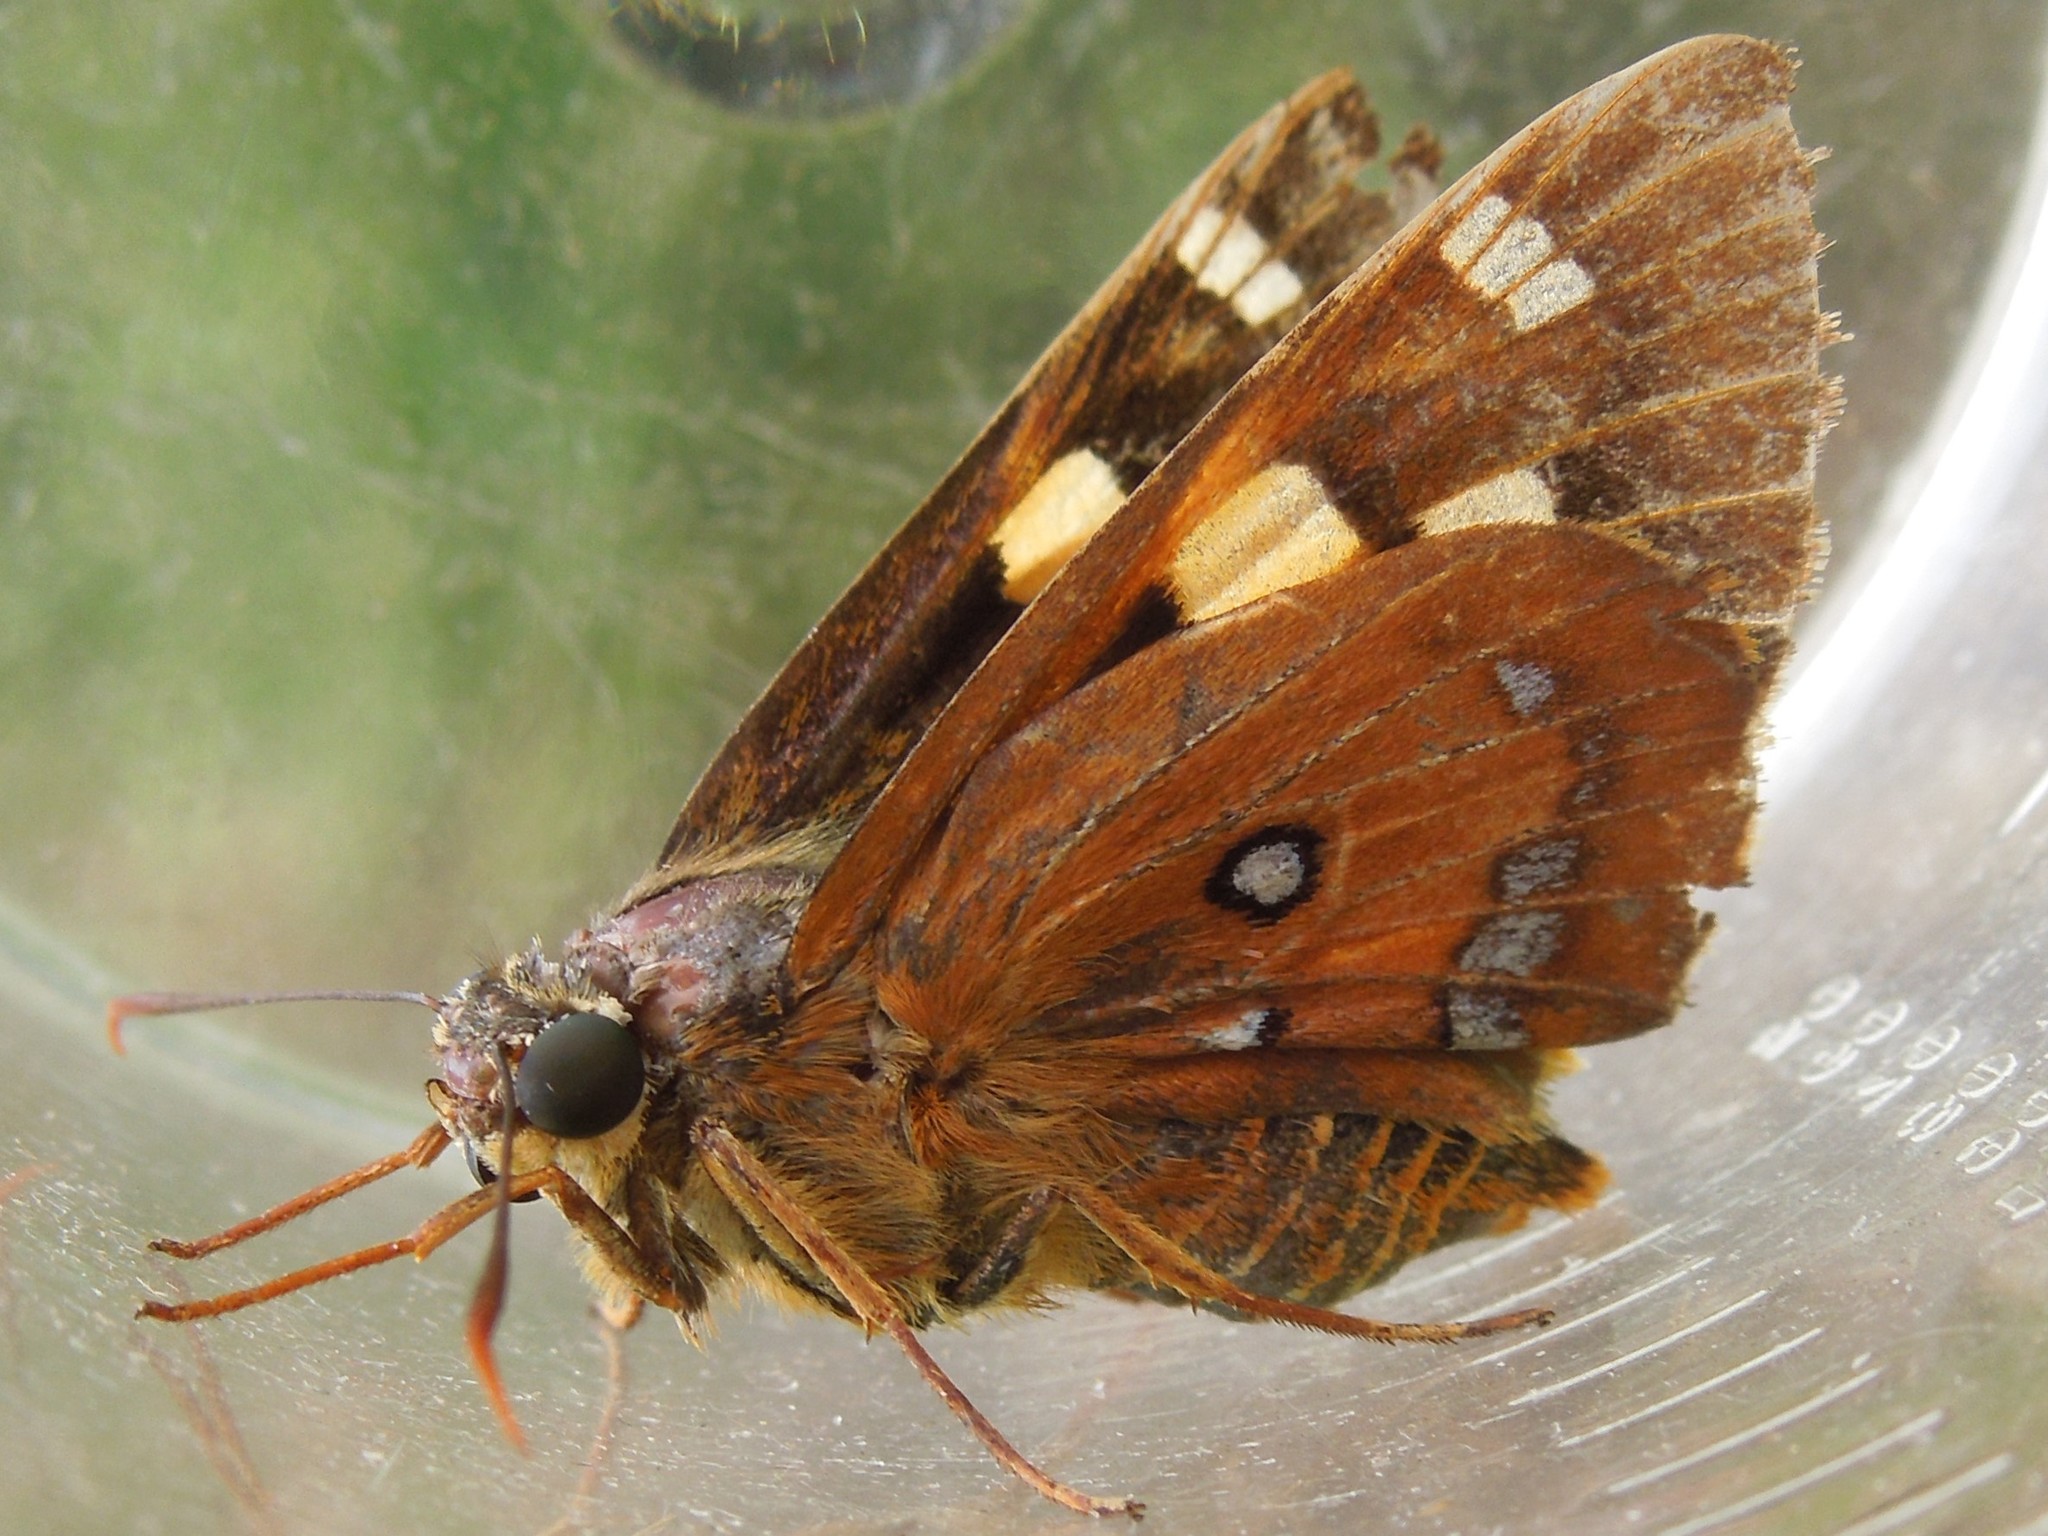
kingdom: Animalia
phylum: Arthropoda
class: Insecta
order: Lepidoptera
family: Hesperiidae
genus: Trapezites
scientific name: Trapezites symmomus
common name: Splendid ochre
